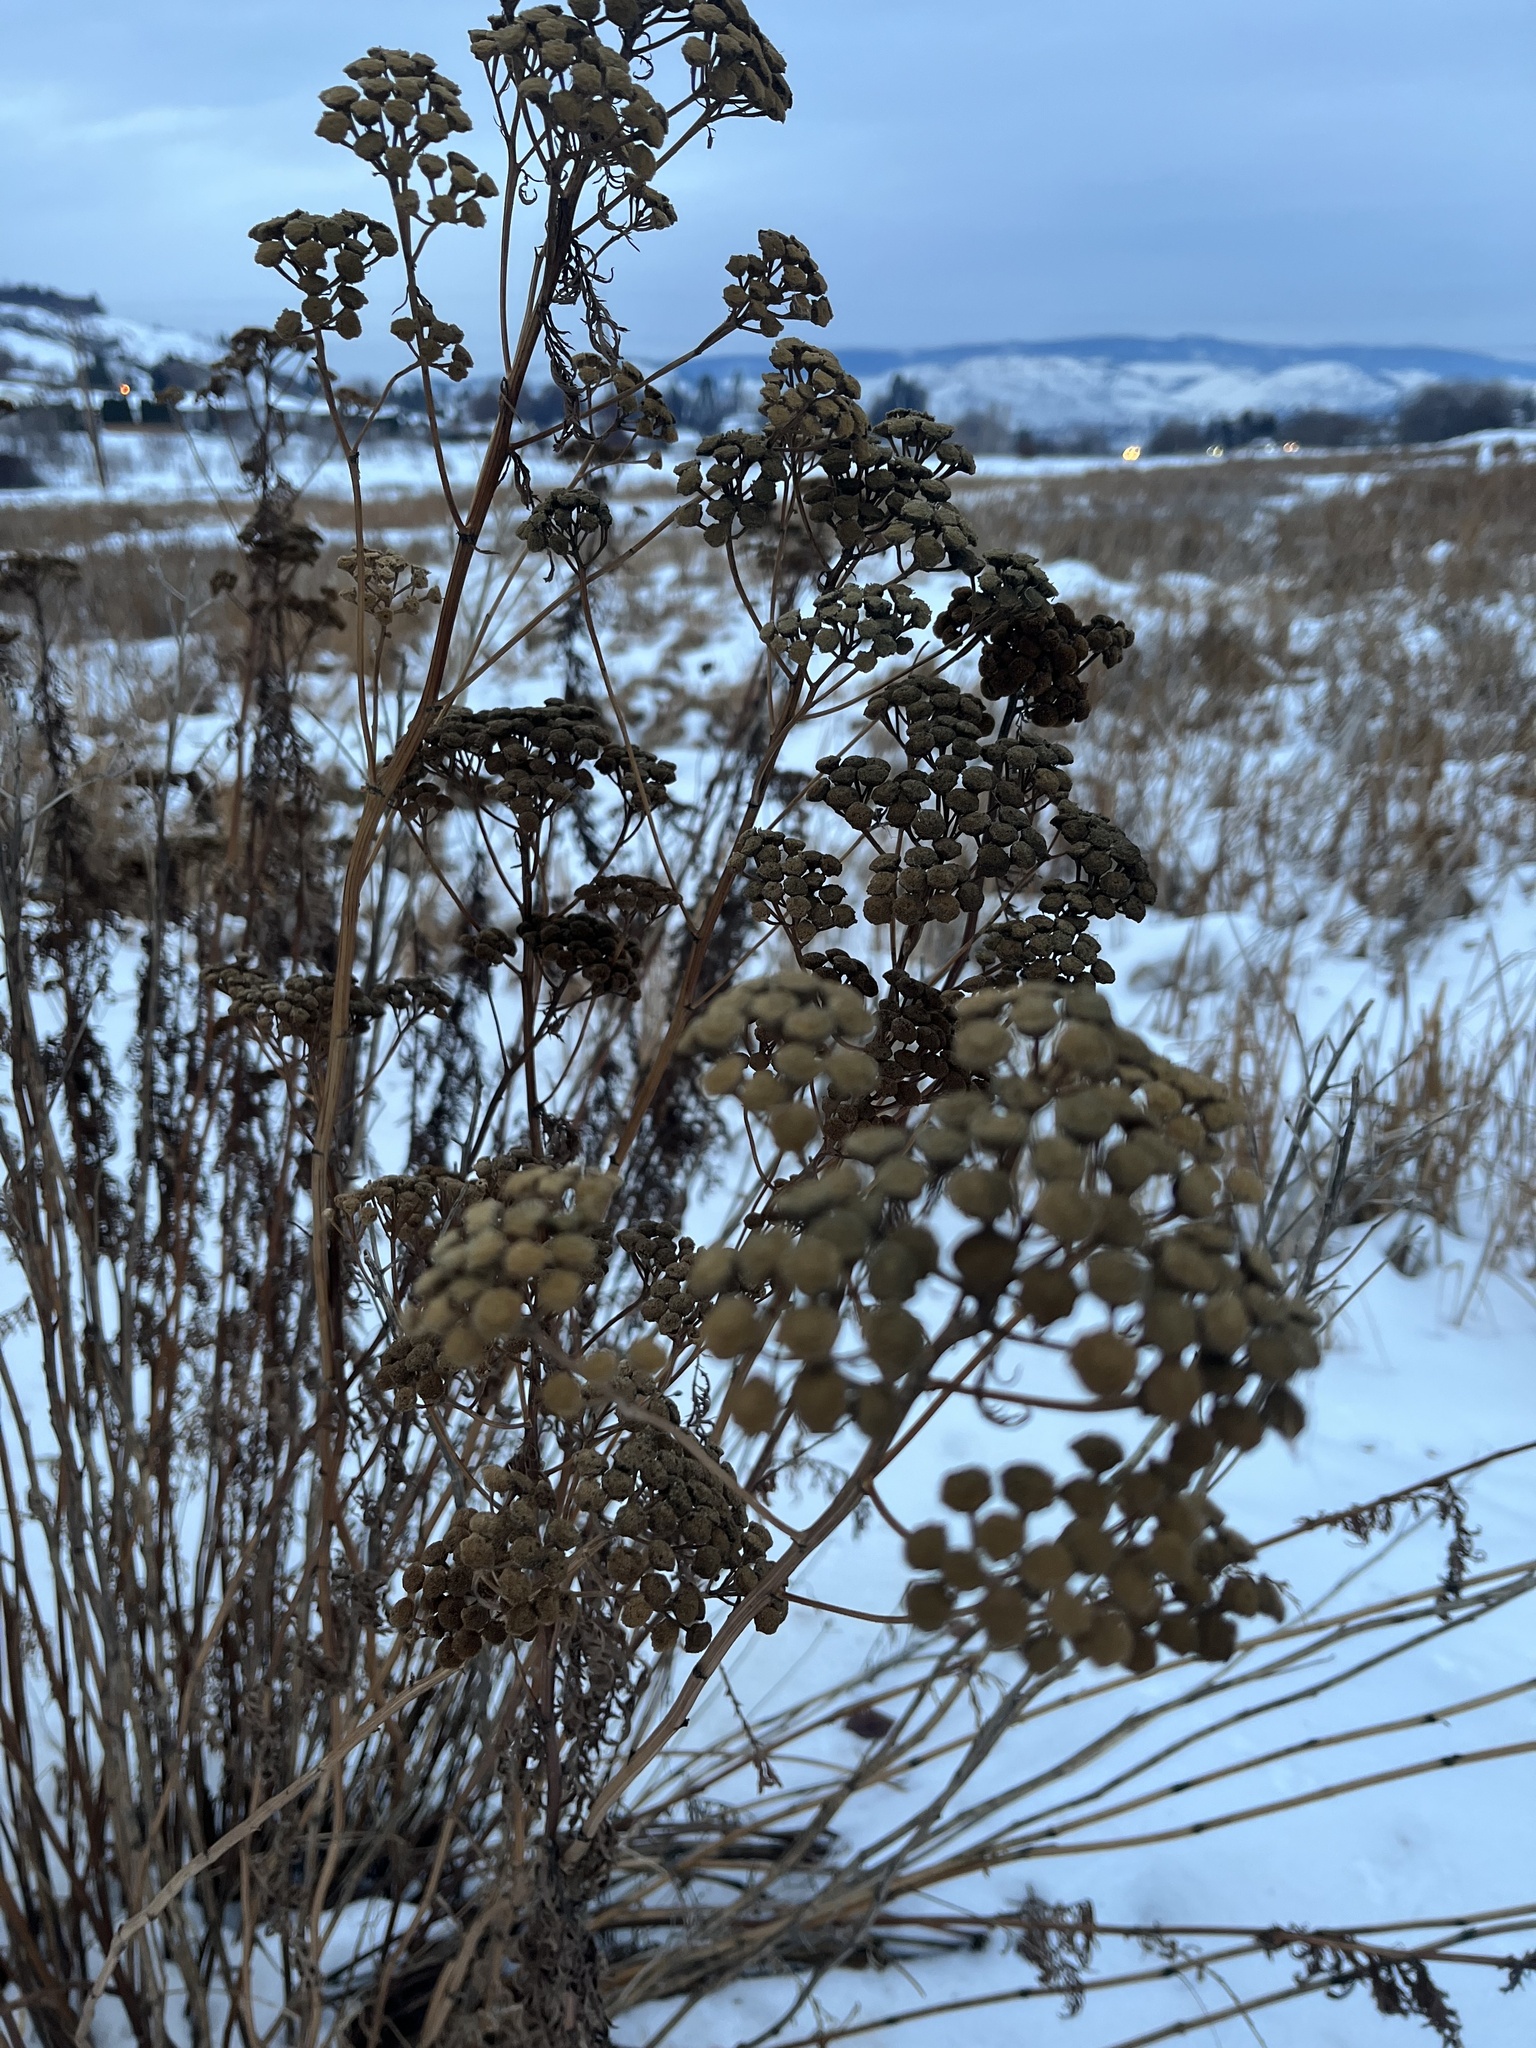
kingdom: Plantae
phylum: Tracheophyta
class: Magnoliopsida
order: Asterales
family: Asteraceae
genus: Tanacetum
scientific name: Tanacetum vulgare
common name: Common tansy
